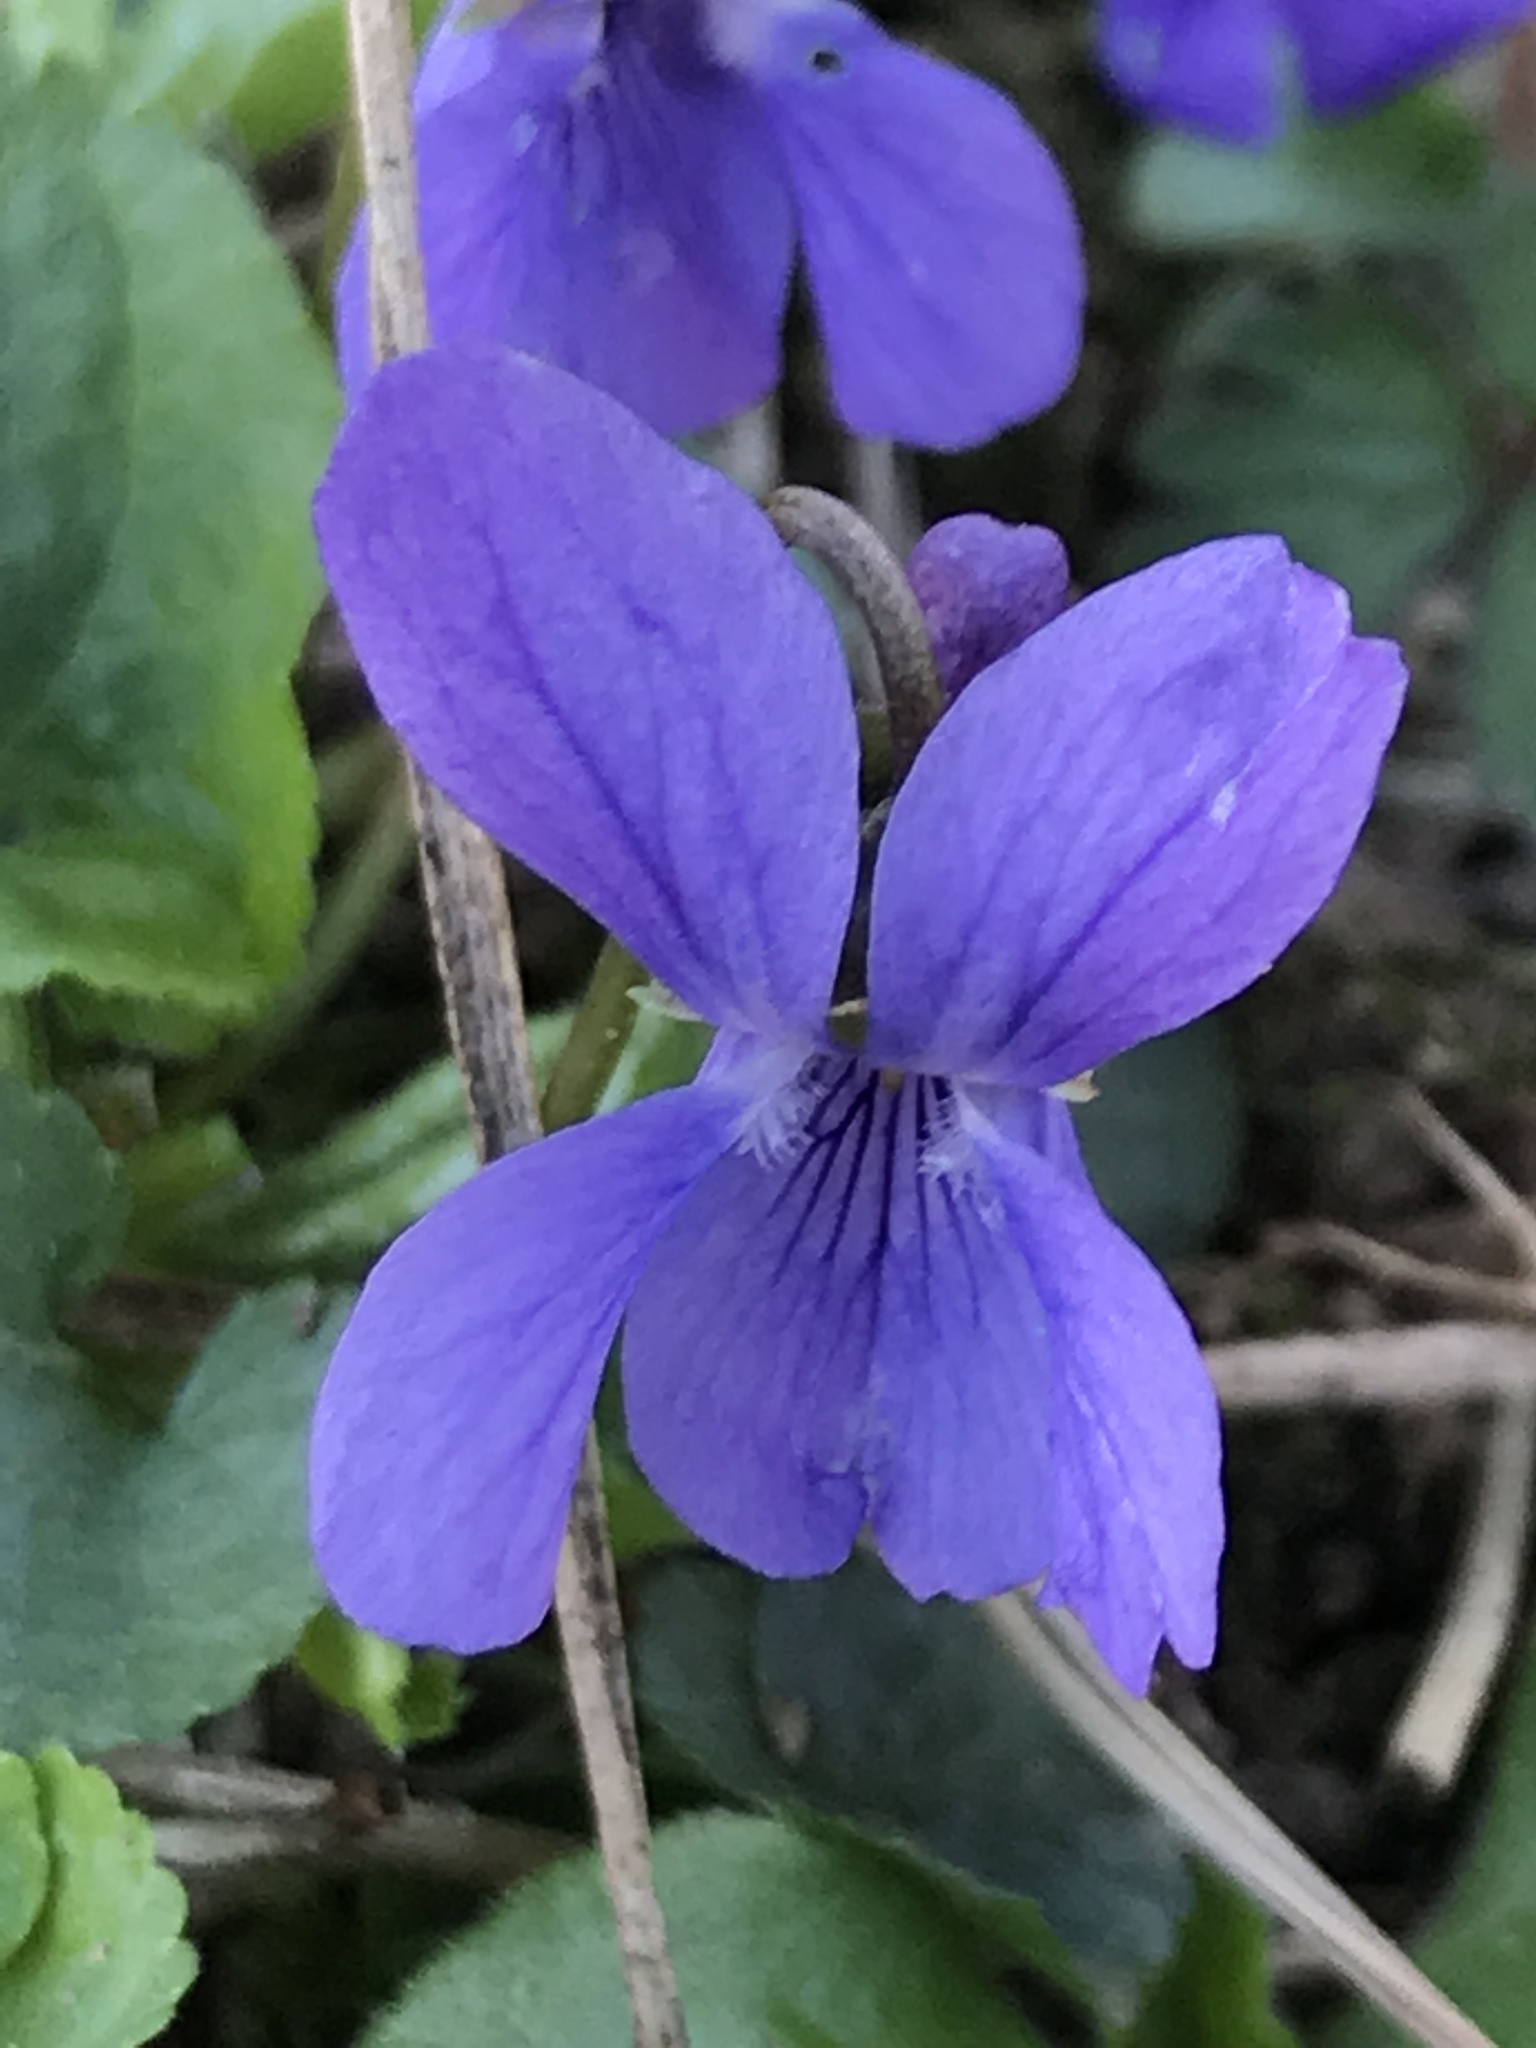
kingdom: Plantae
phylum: Tracheophyta
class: Magnoliopsida
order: Malpighiales
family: Violaceae
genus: Viola
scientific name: Viola odorata
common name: Sweet violet
